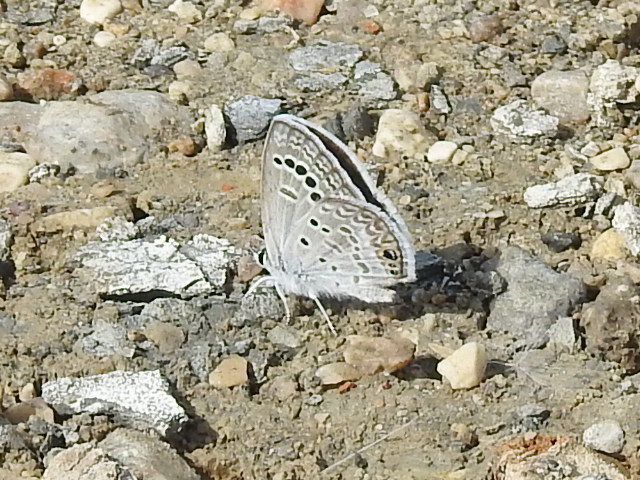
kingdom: Animalia
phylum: Arthropoda
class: Insecta
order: Lepidoptera
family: Lycaenidae
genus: Echinargus
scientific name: Echinargus isola
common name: Reakirt's blue
